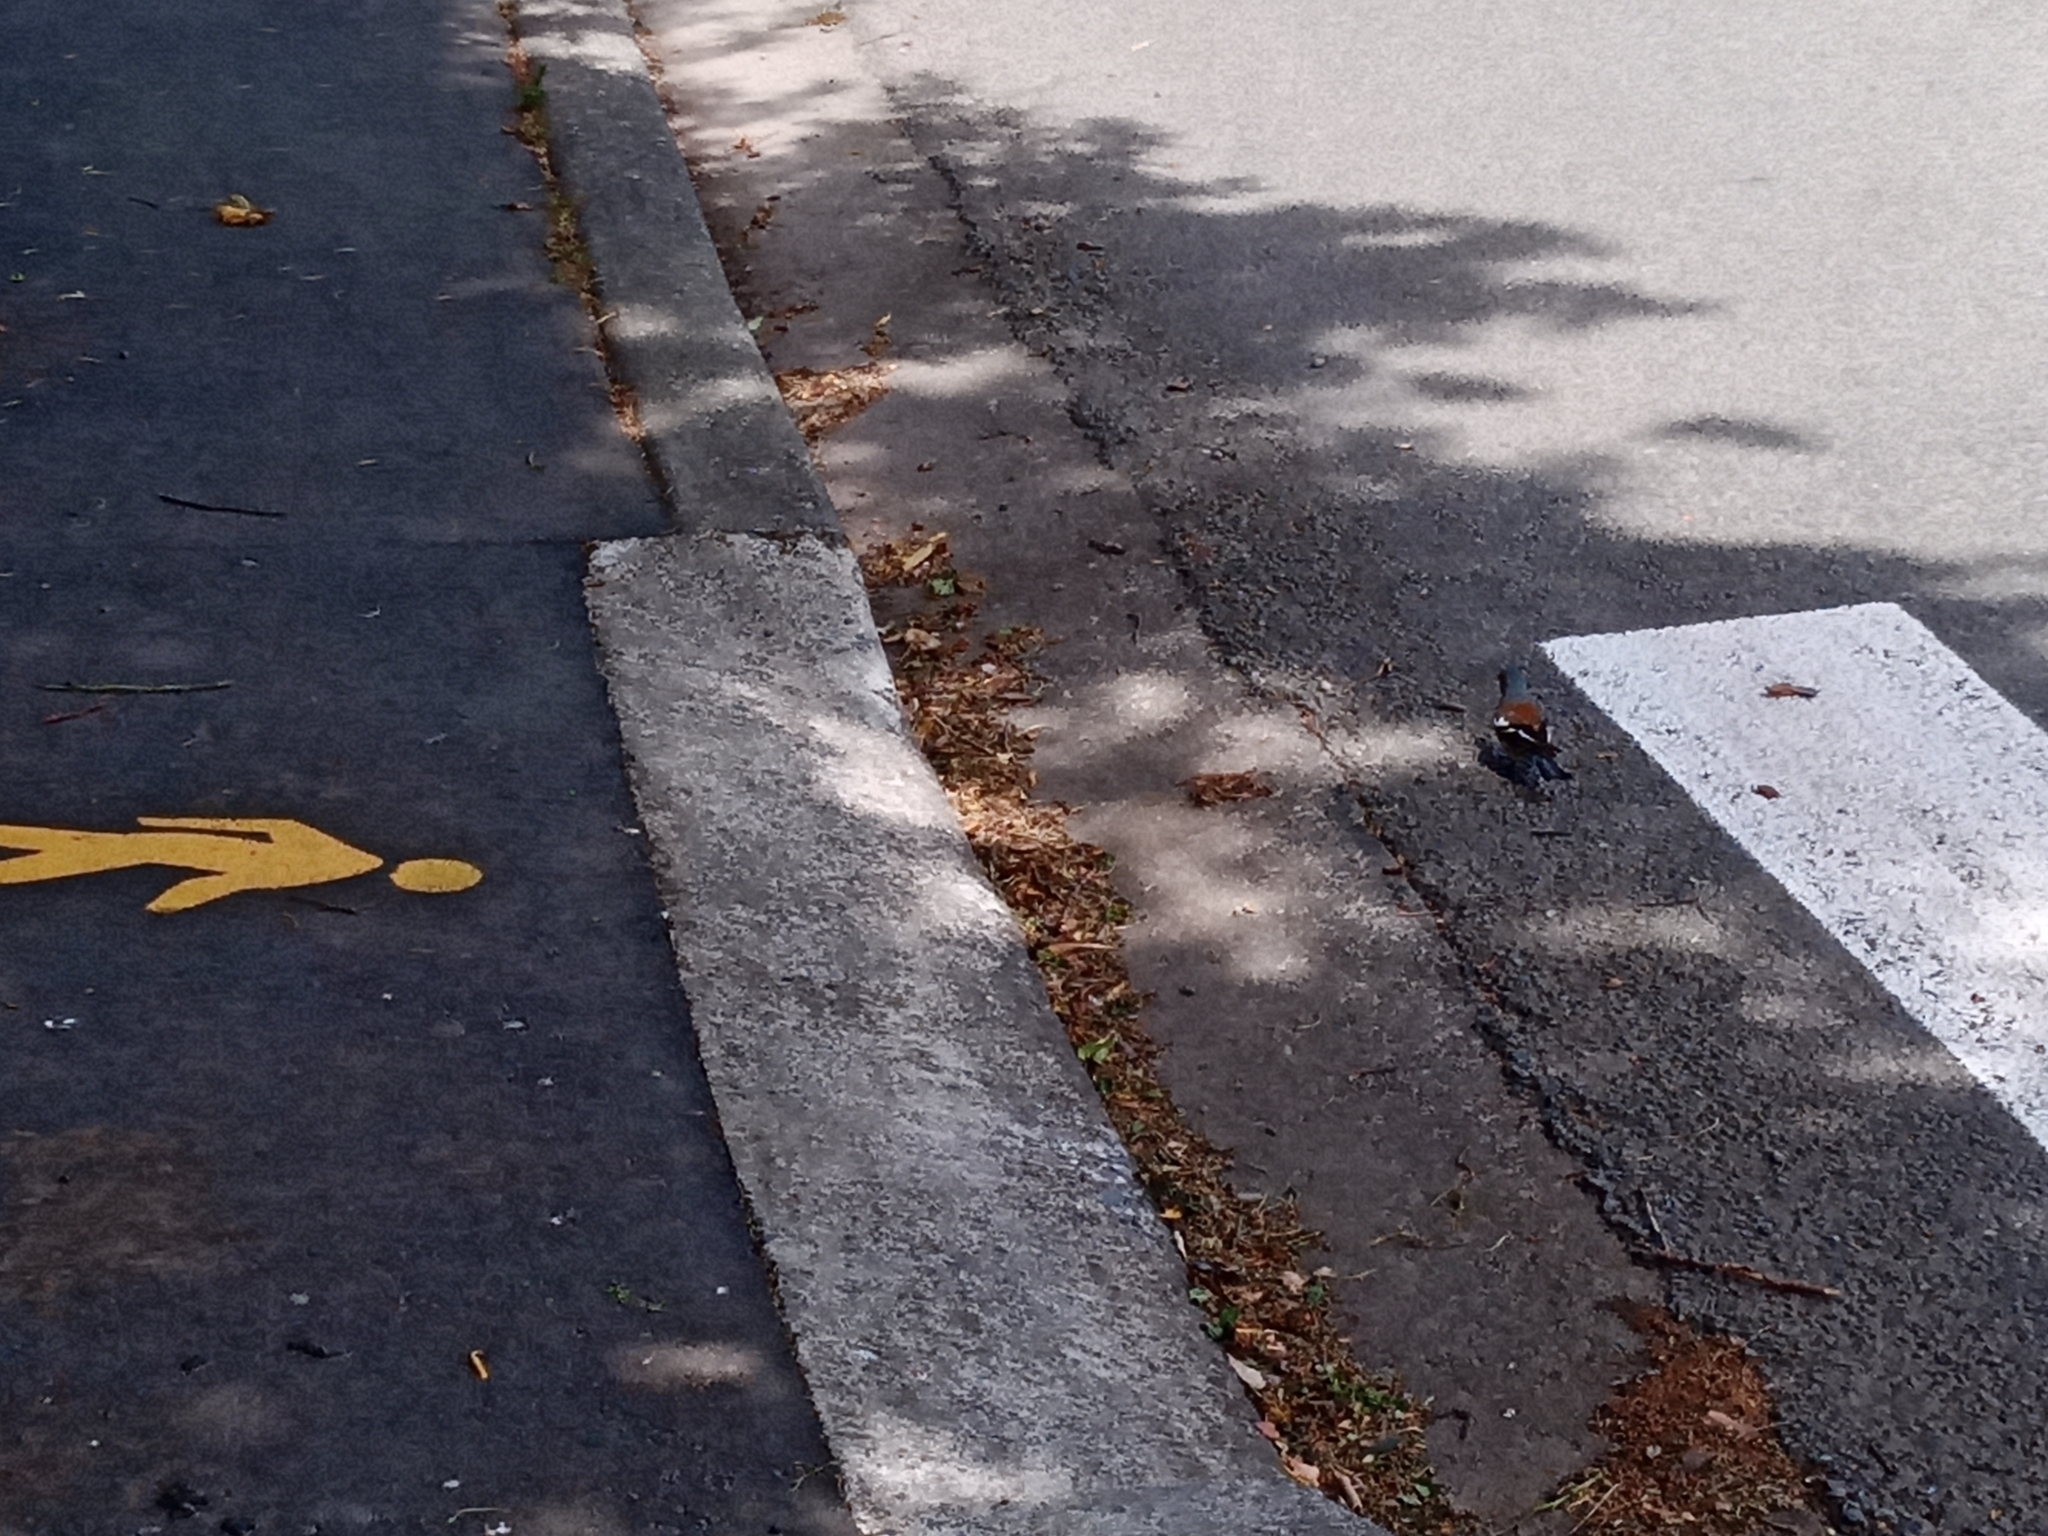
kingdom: Animalia
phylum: Chordata
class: Aves
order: Passeriformes
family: Fringillidae
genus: Fringilla
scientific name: Fringilla coelebs
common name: Common chaffinch
